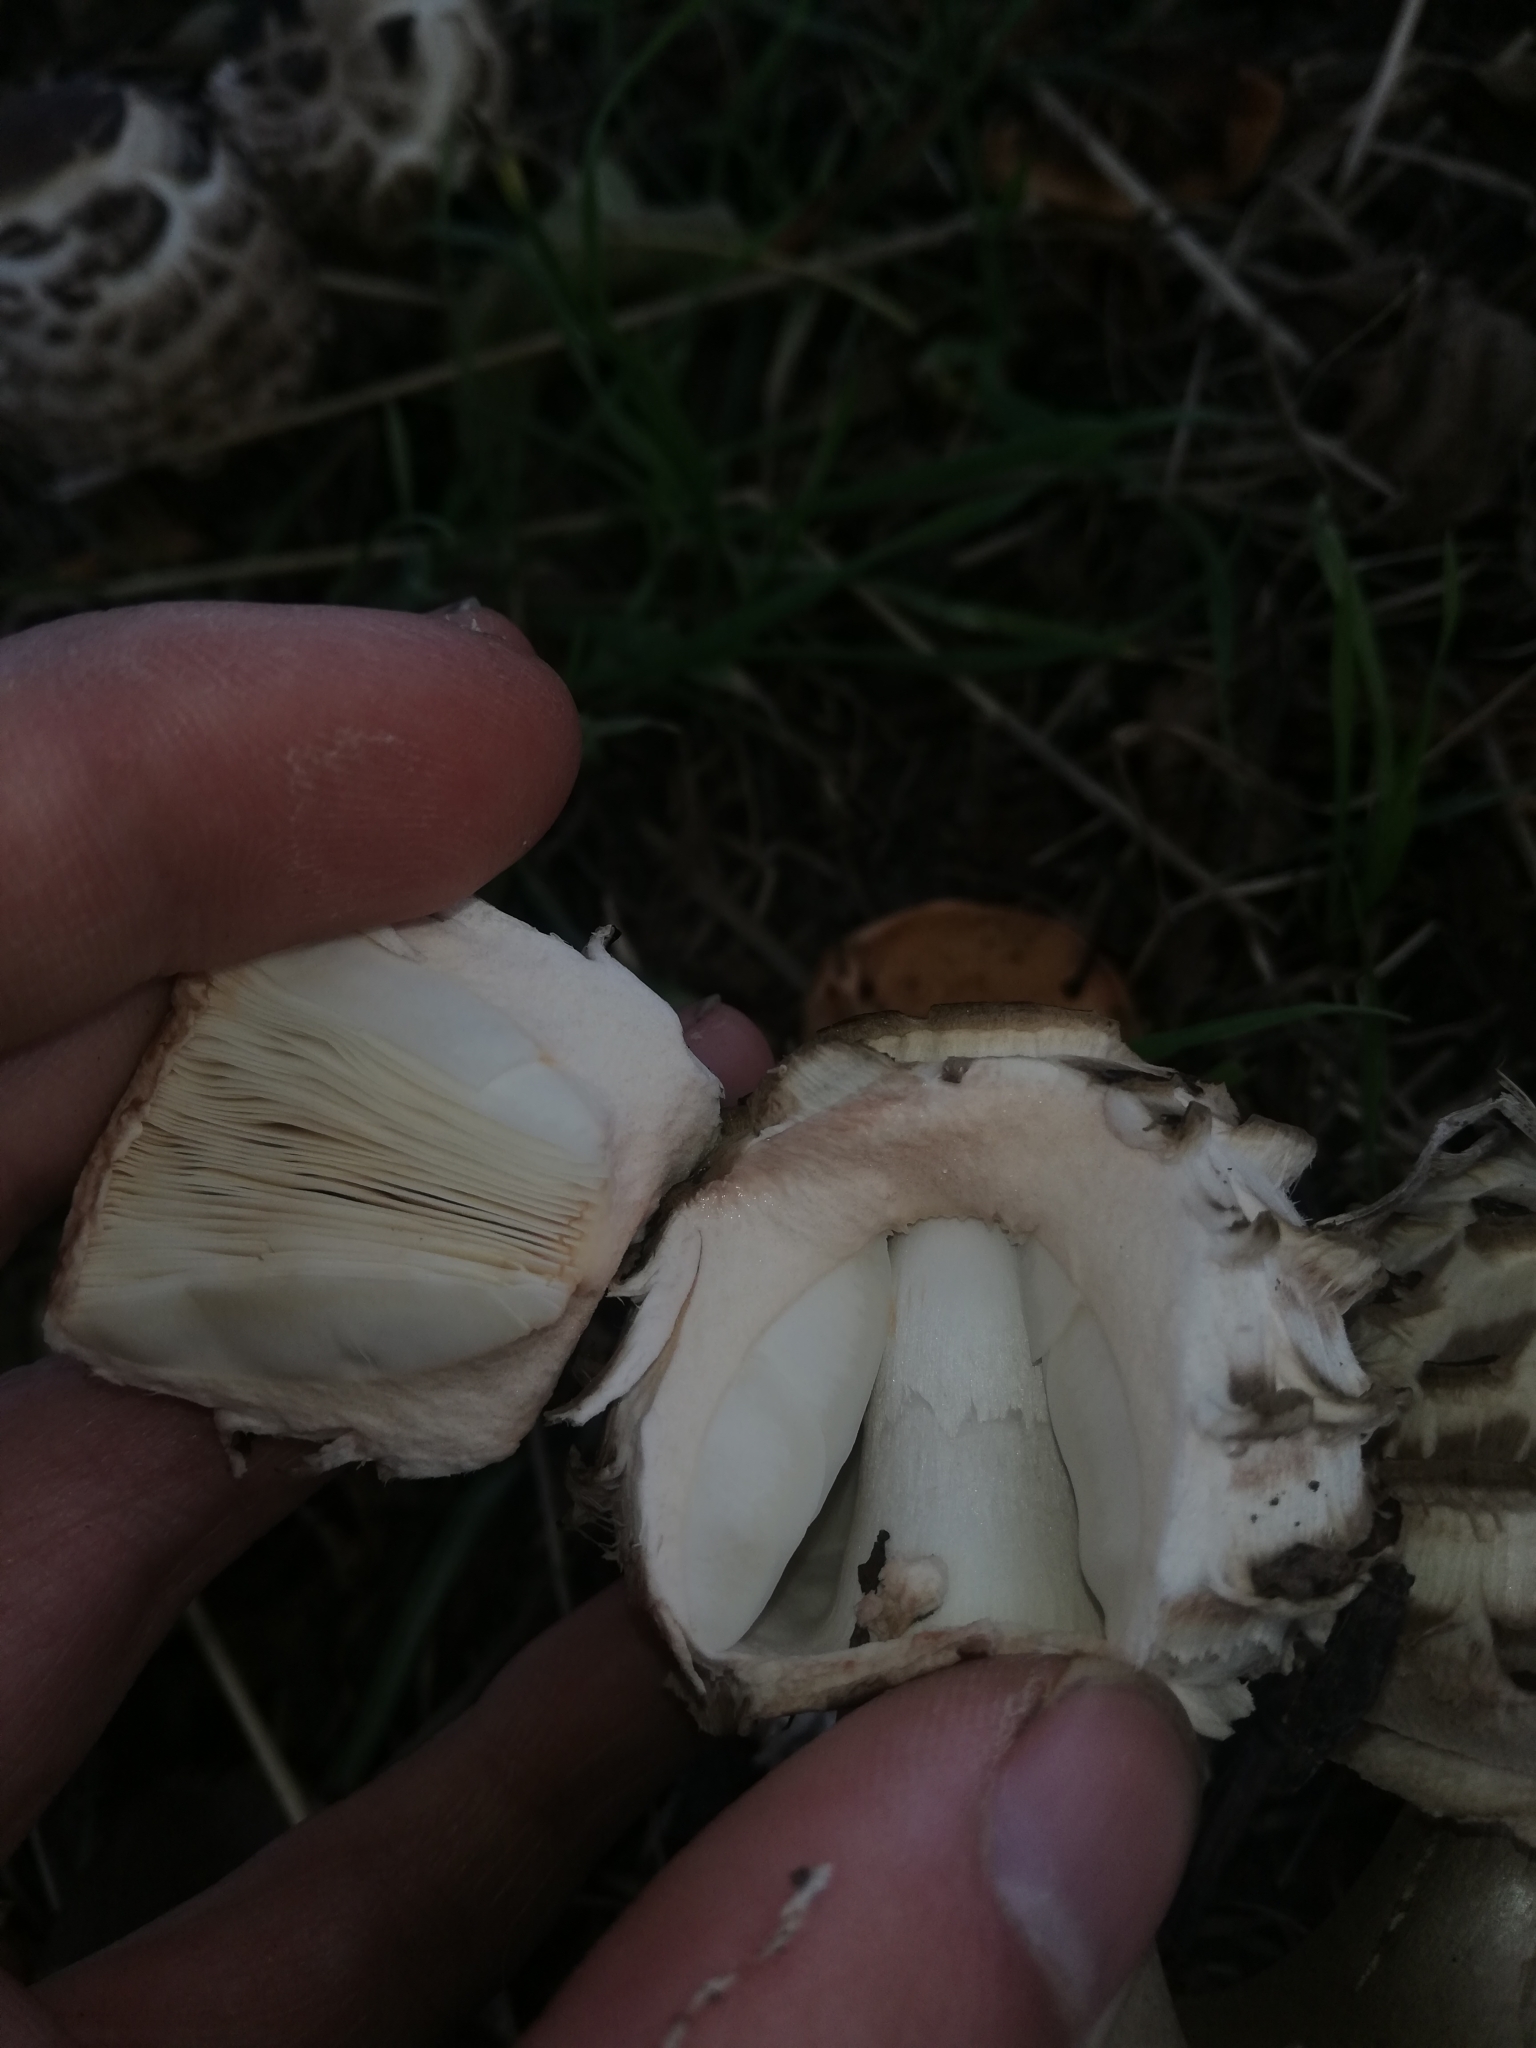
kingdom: Fungi
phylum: Basidiomycota
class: Agaricomycetes
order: Agaricales
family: Agaricaceae
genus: Chlorophyllum
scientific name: Chlorophyllum rhacodes
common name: Shaggy parasol
